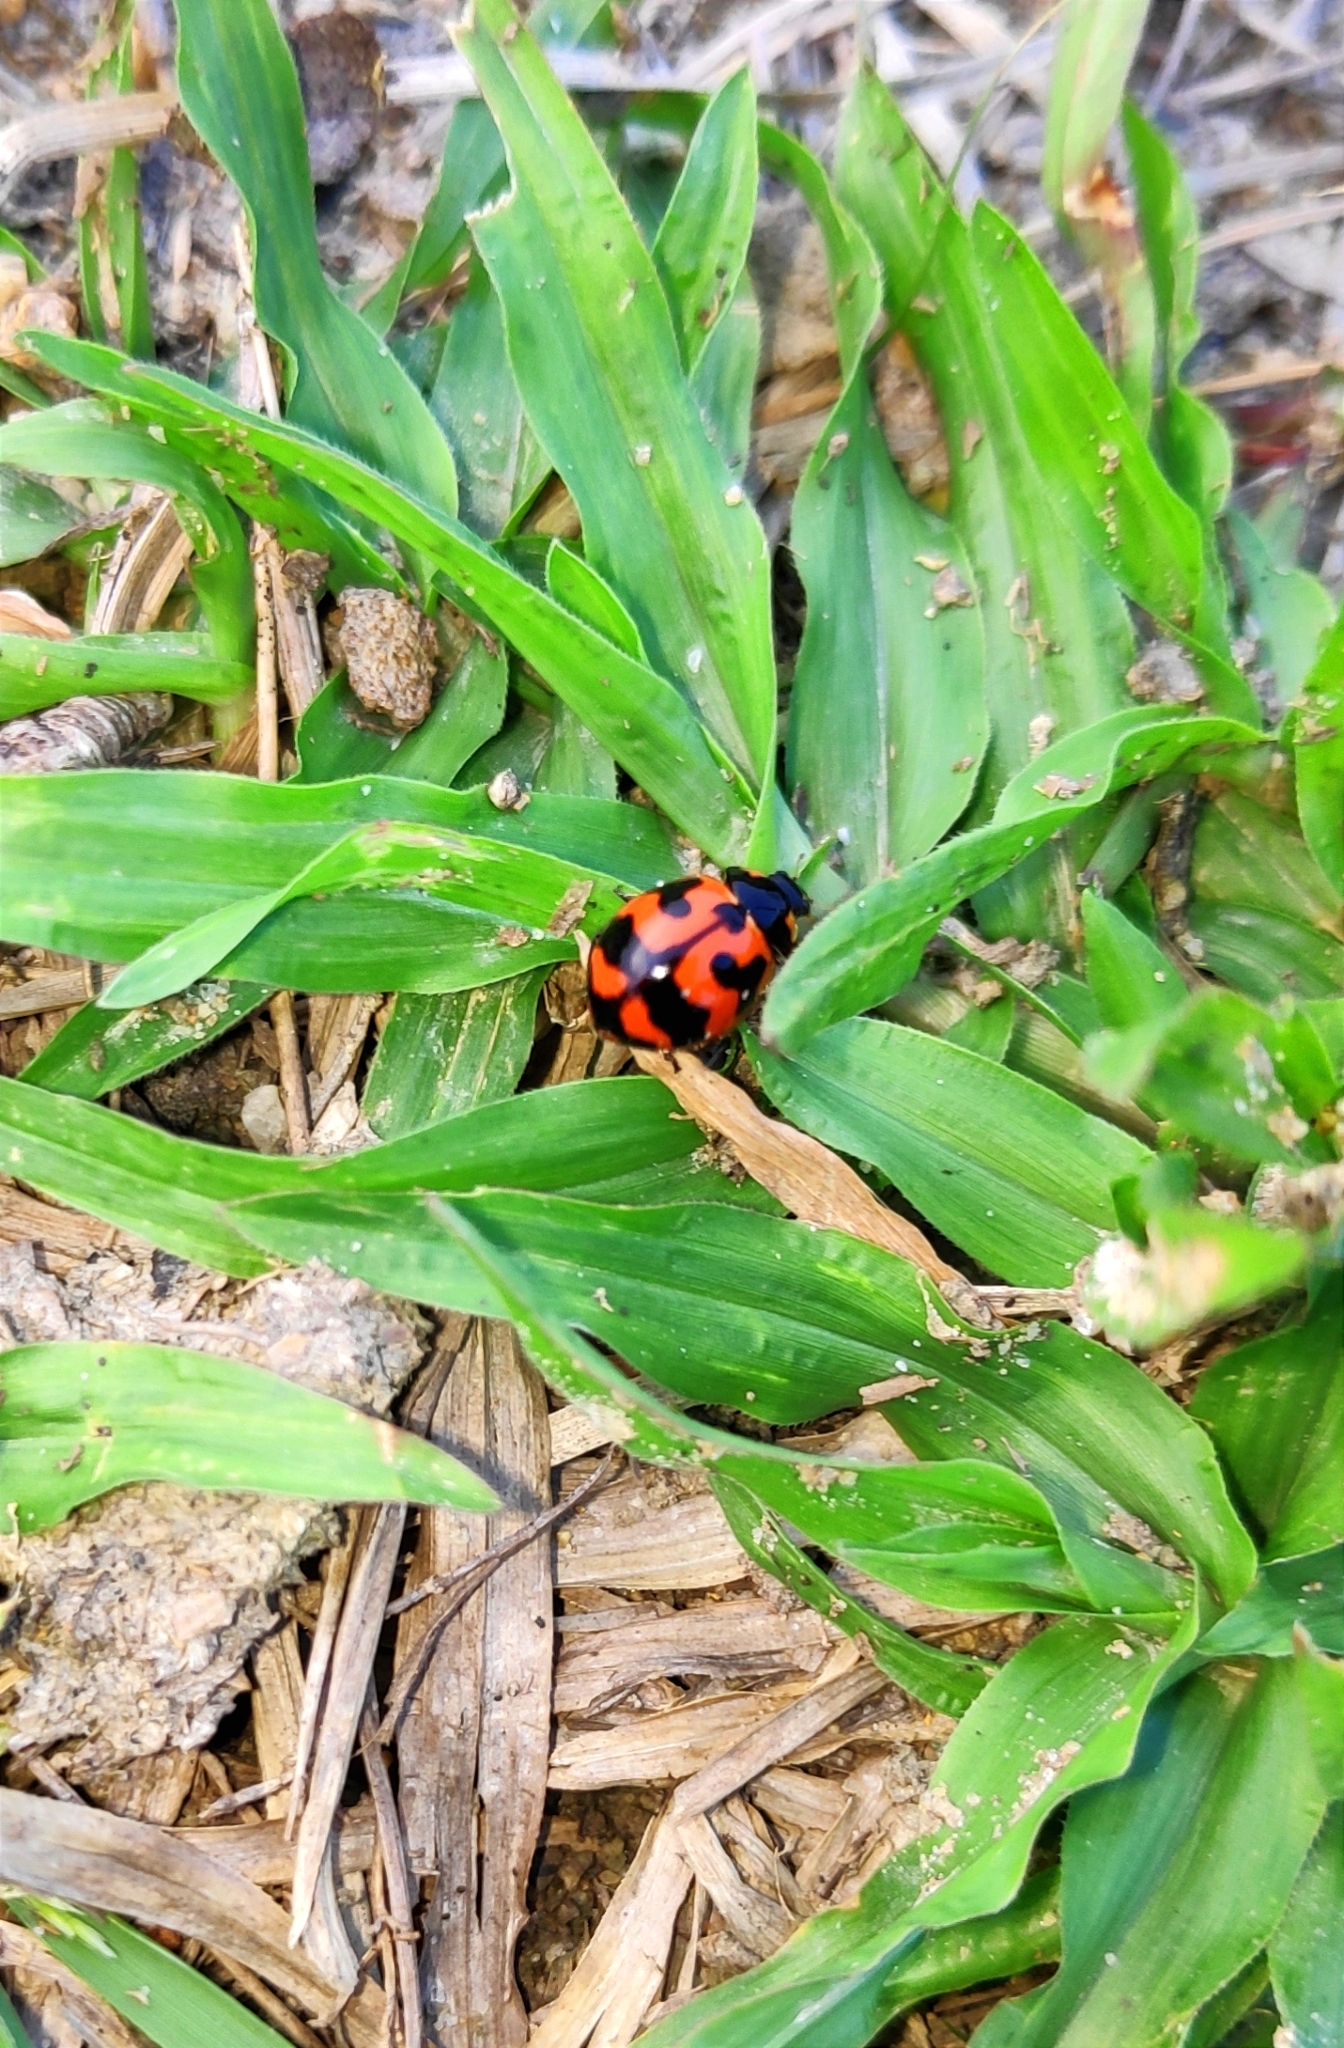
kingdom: Animalia
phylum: Arthropoda
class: Insecta
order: Coleoptera
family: Coccinellidae
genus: Coccinella
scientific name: Coccinella transversalis
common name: Transverse lady beetle
